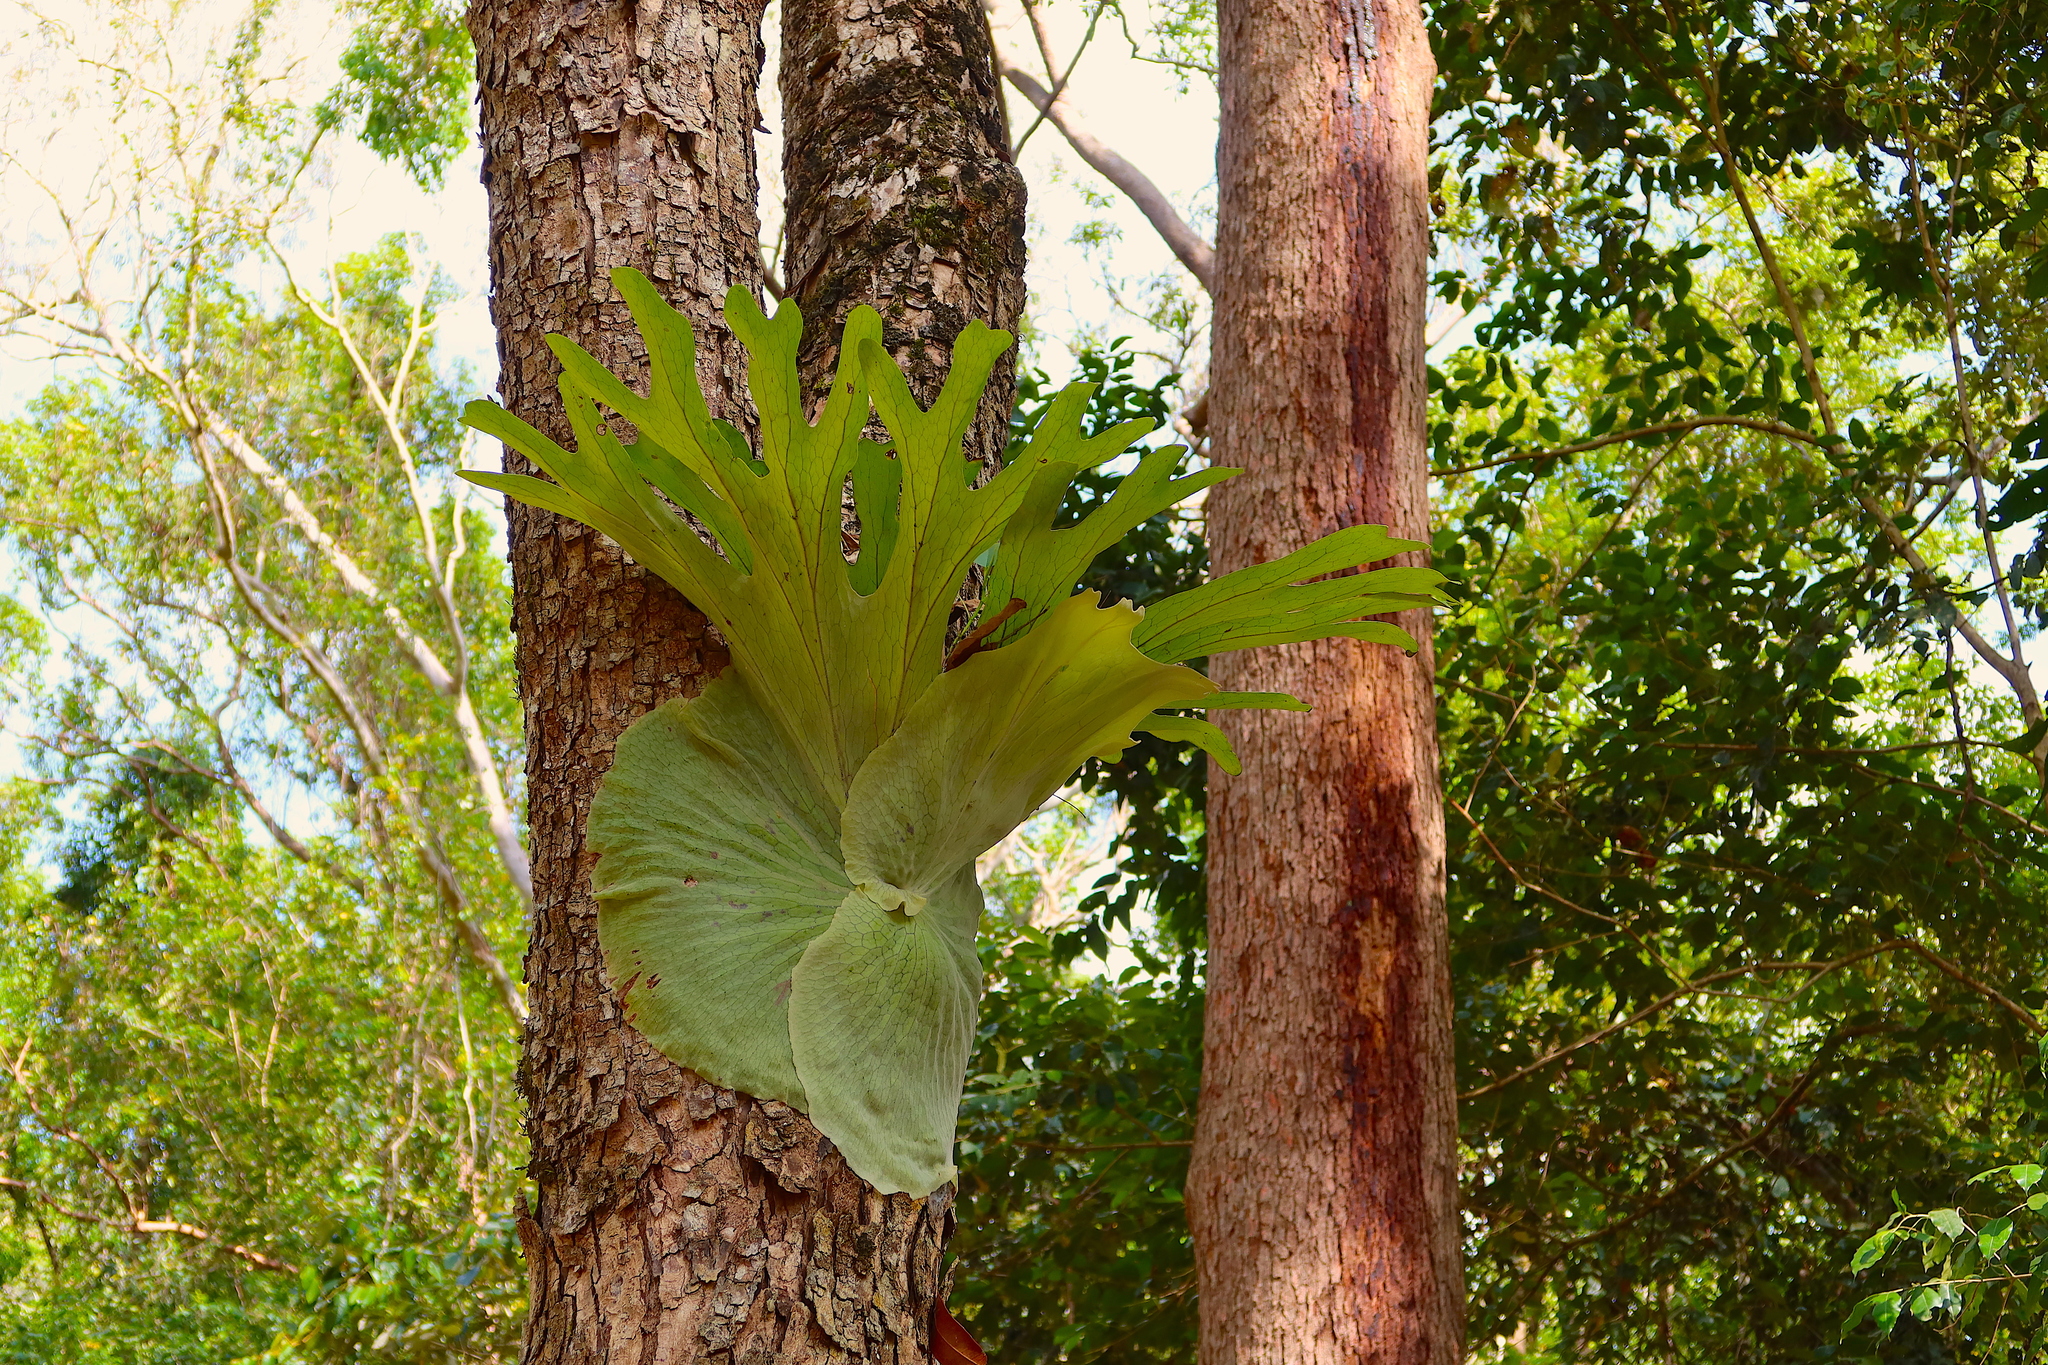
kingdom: Plantae
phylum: Tracheophyta
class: Polypodiopsida
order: Polypodiales
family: Polypodiaceae
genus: Platycerium
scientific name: Platycerium superbum
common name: Staghorn fern
